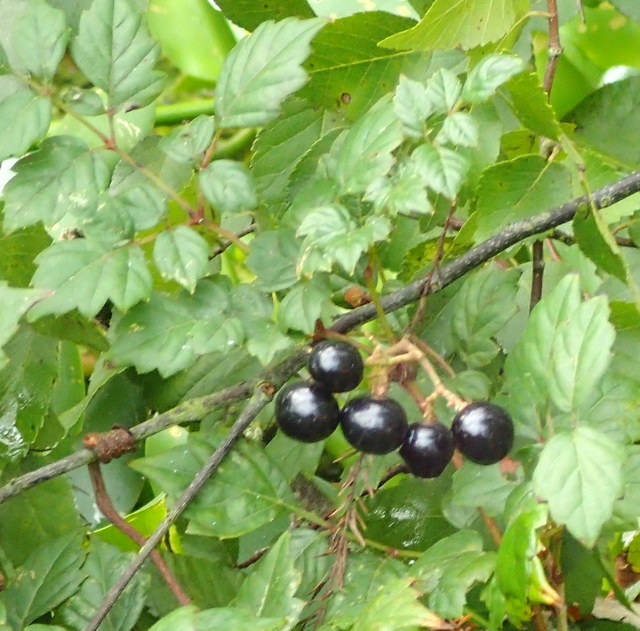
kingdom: Plantae
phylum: Tracheophyta
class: Magnoliopsida
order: Vitales
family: Vitaceae
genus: Nekemias
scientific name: Nekemias arborea
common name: Peppervine
